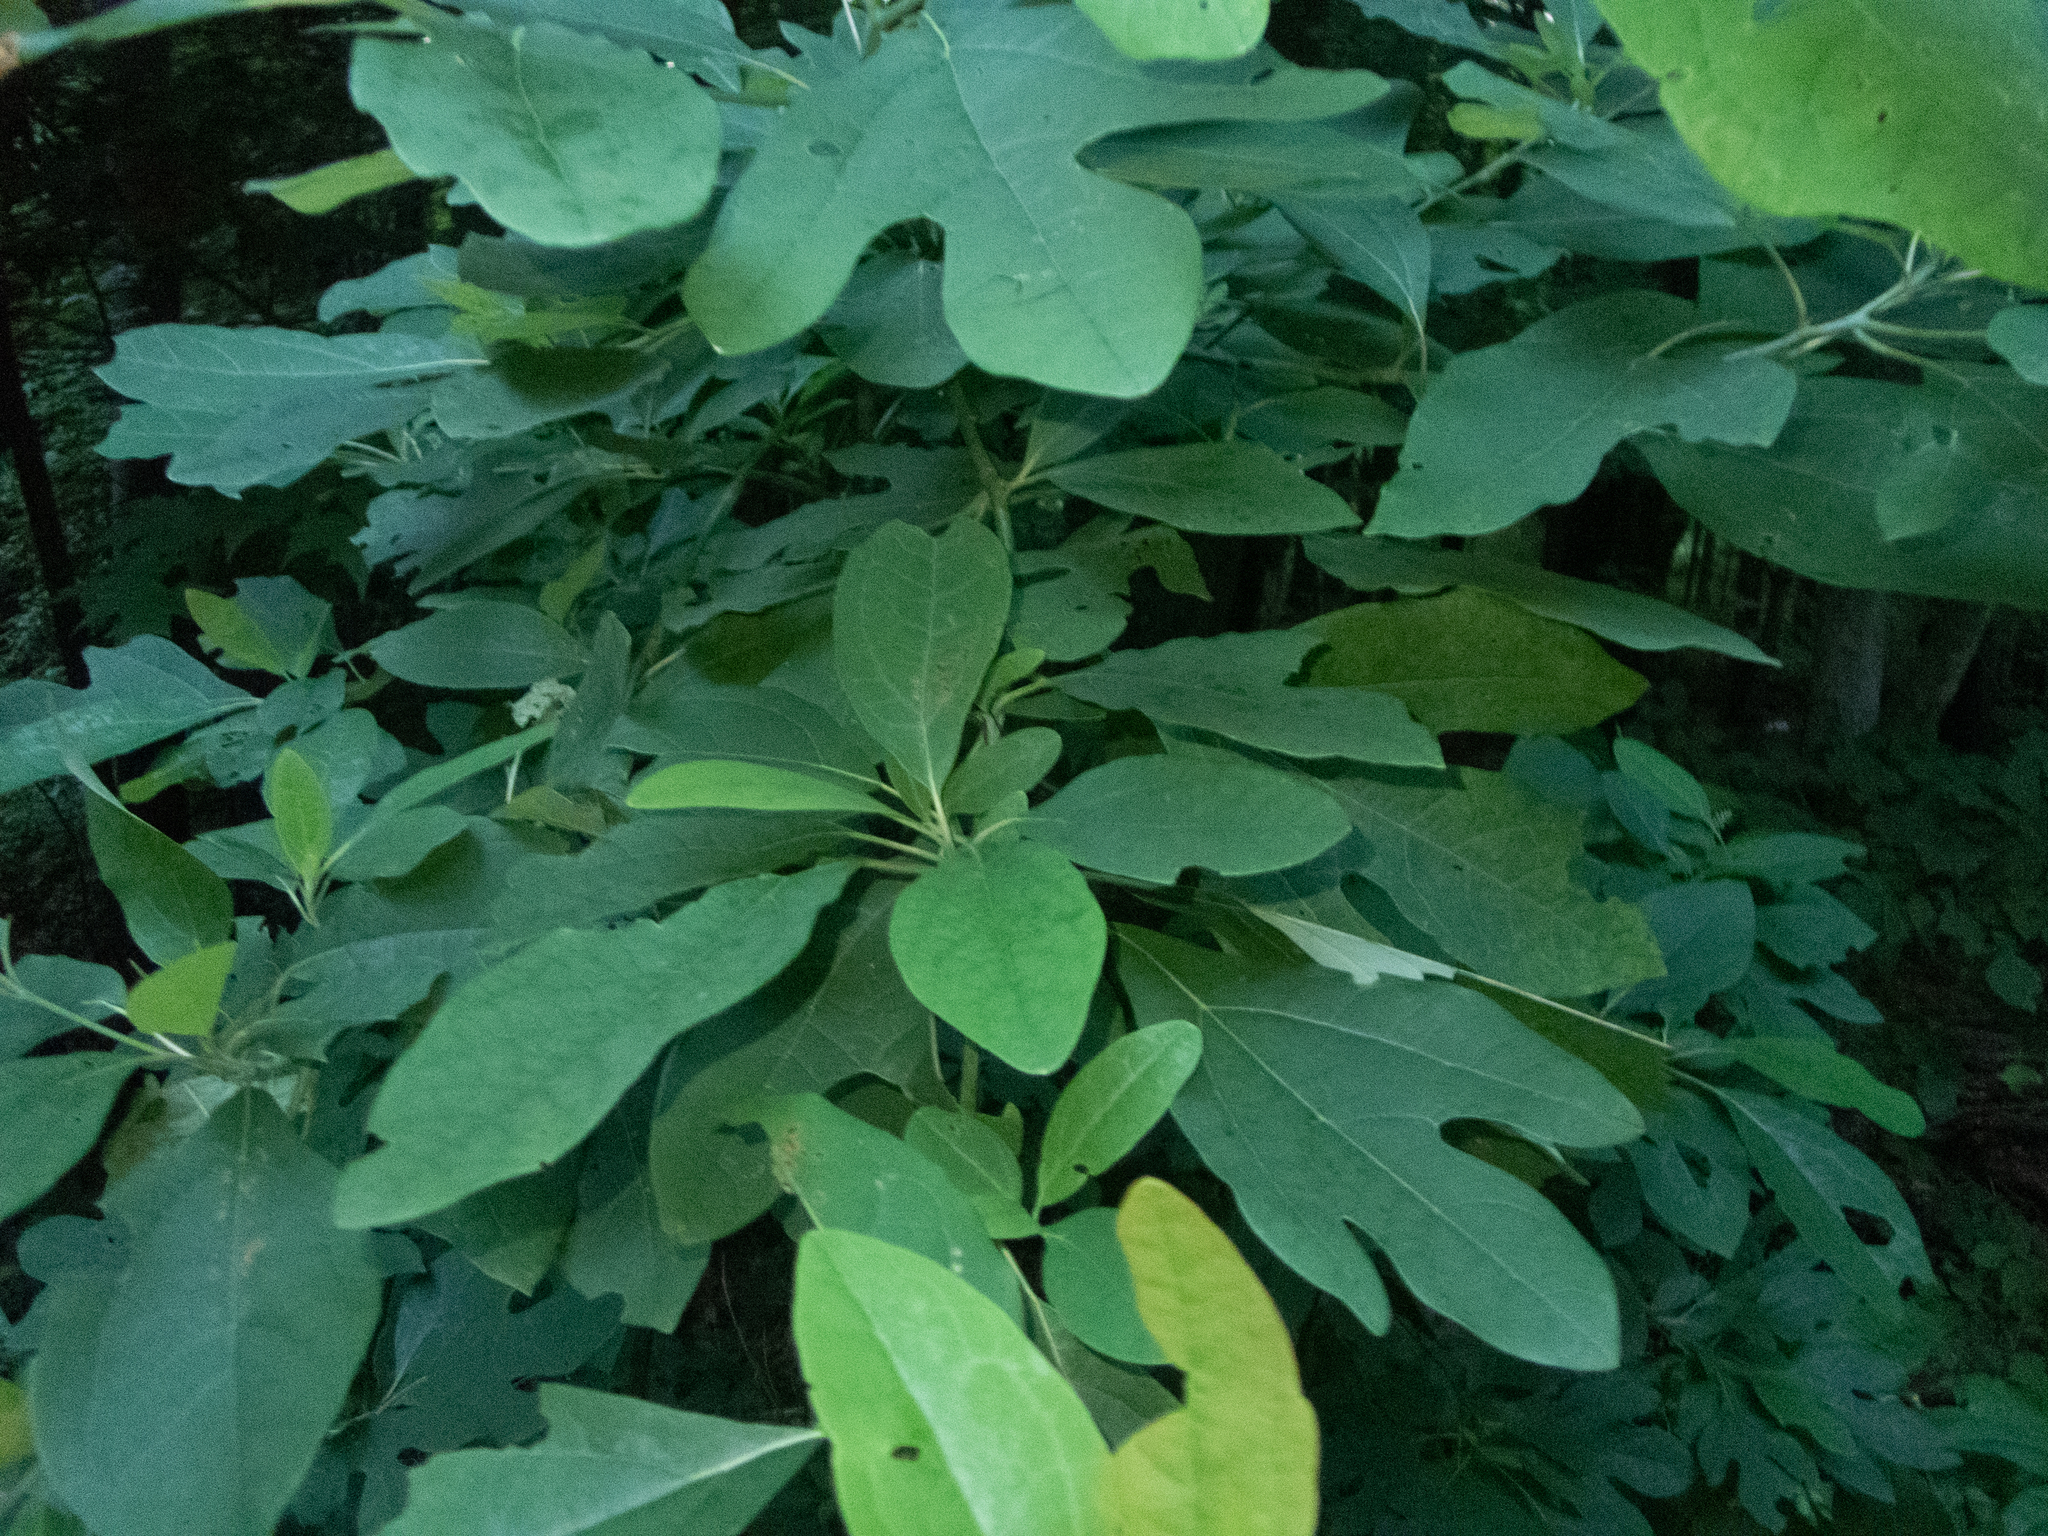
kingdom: Plantae
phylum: Tracheophyta
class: Magnoliopsida
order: Laurales
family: Lauraceae
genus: Sassafras
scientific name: Sassafras albidum
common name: Sassafras
